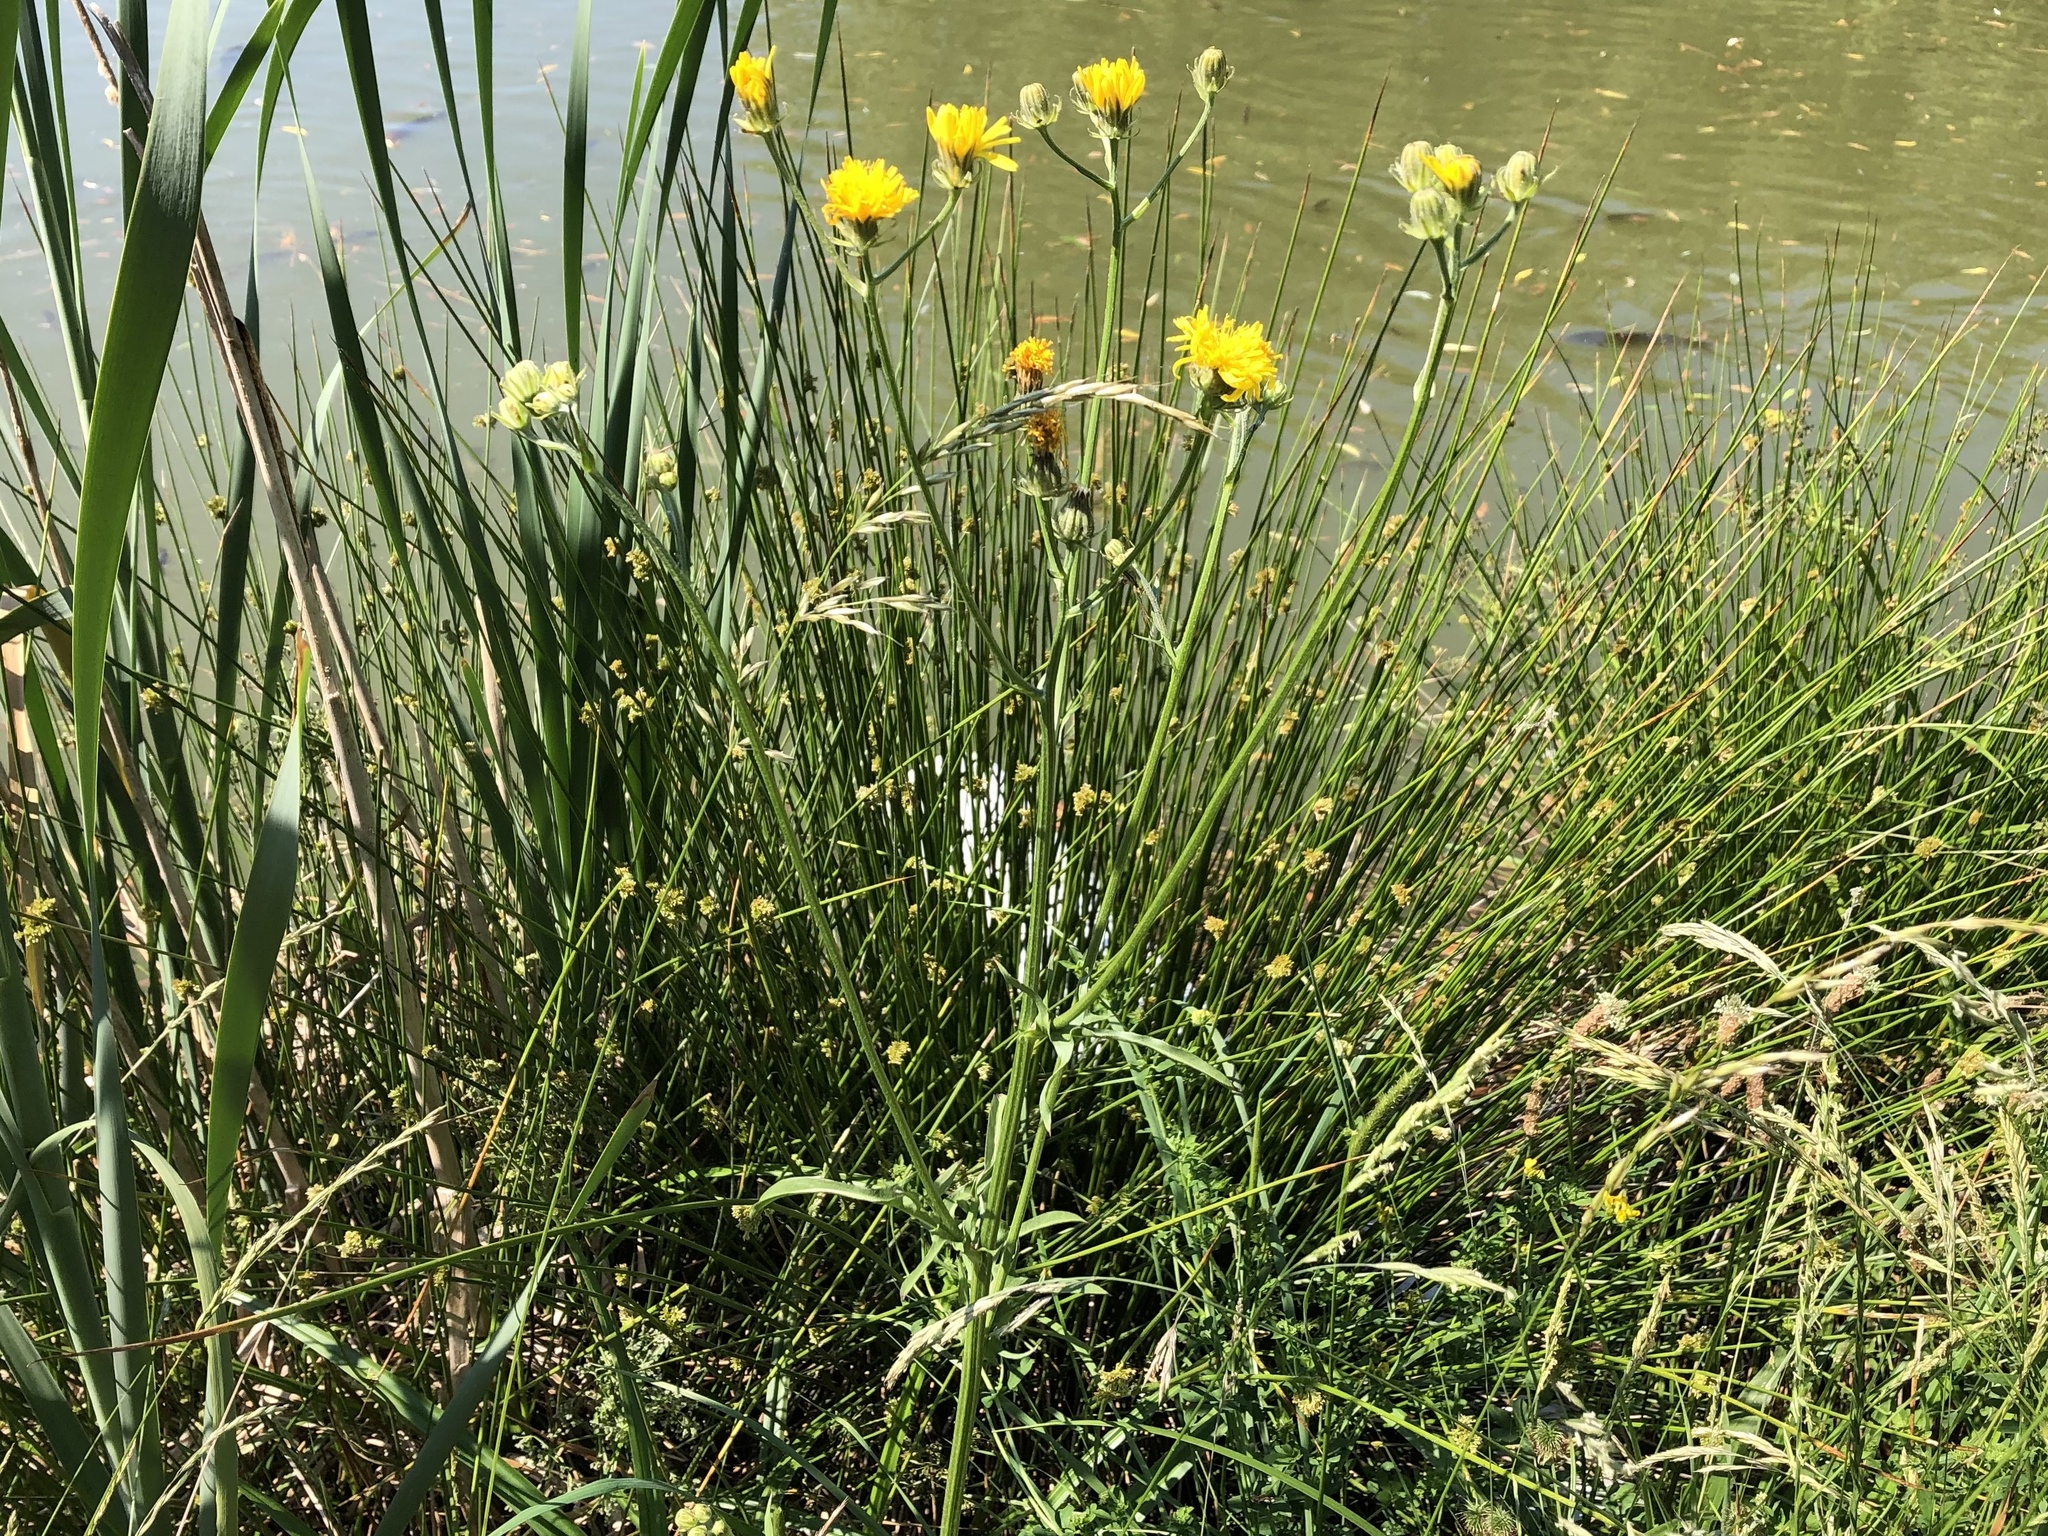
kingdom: Plantae
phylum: Tracheophyta
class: Magnoliopsida
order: Asterales
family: Asteraceae
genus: Crepis
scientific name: Crepis biennis
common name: Rough hawk's-beard
